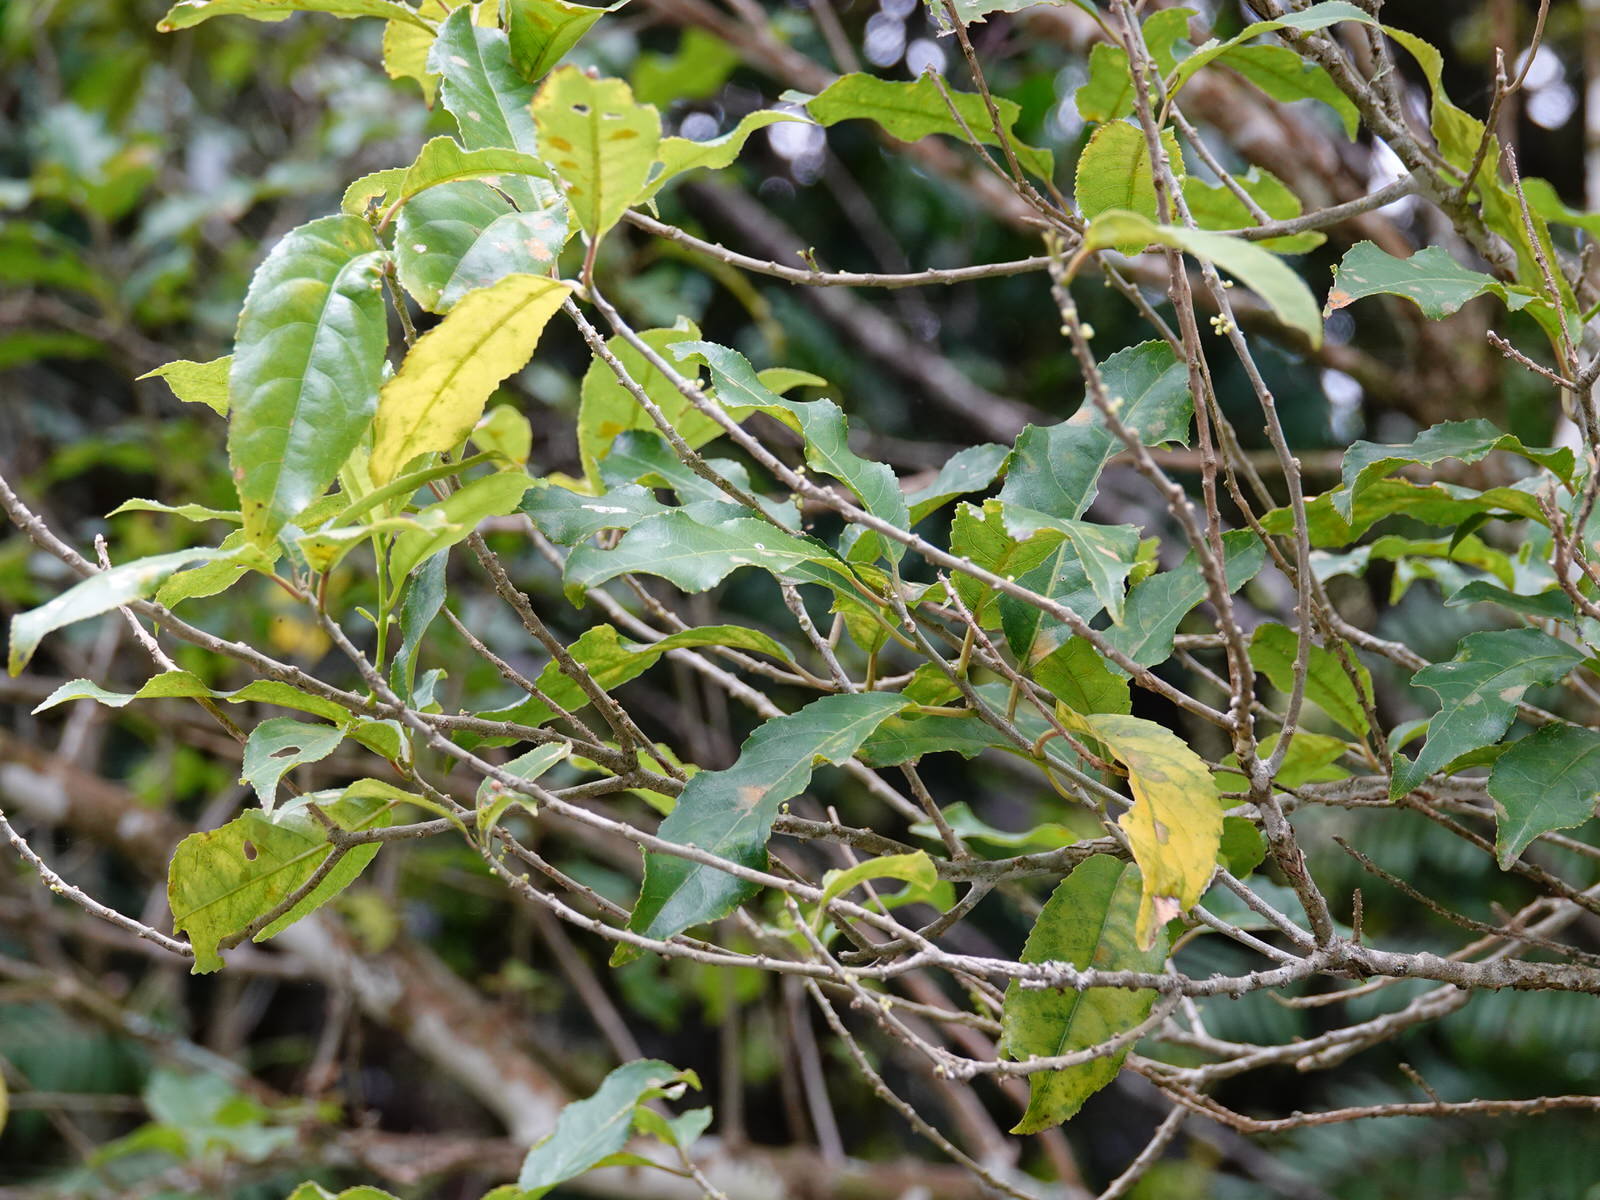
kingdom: Plantae
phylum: Tracheophyta
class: Magnoliopsida
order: Malpighiales
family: Violaceae
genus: Melicytus
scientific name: Melicytus ramiflorus
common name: Mahoe
